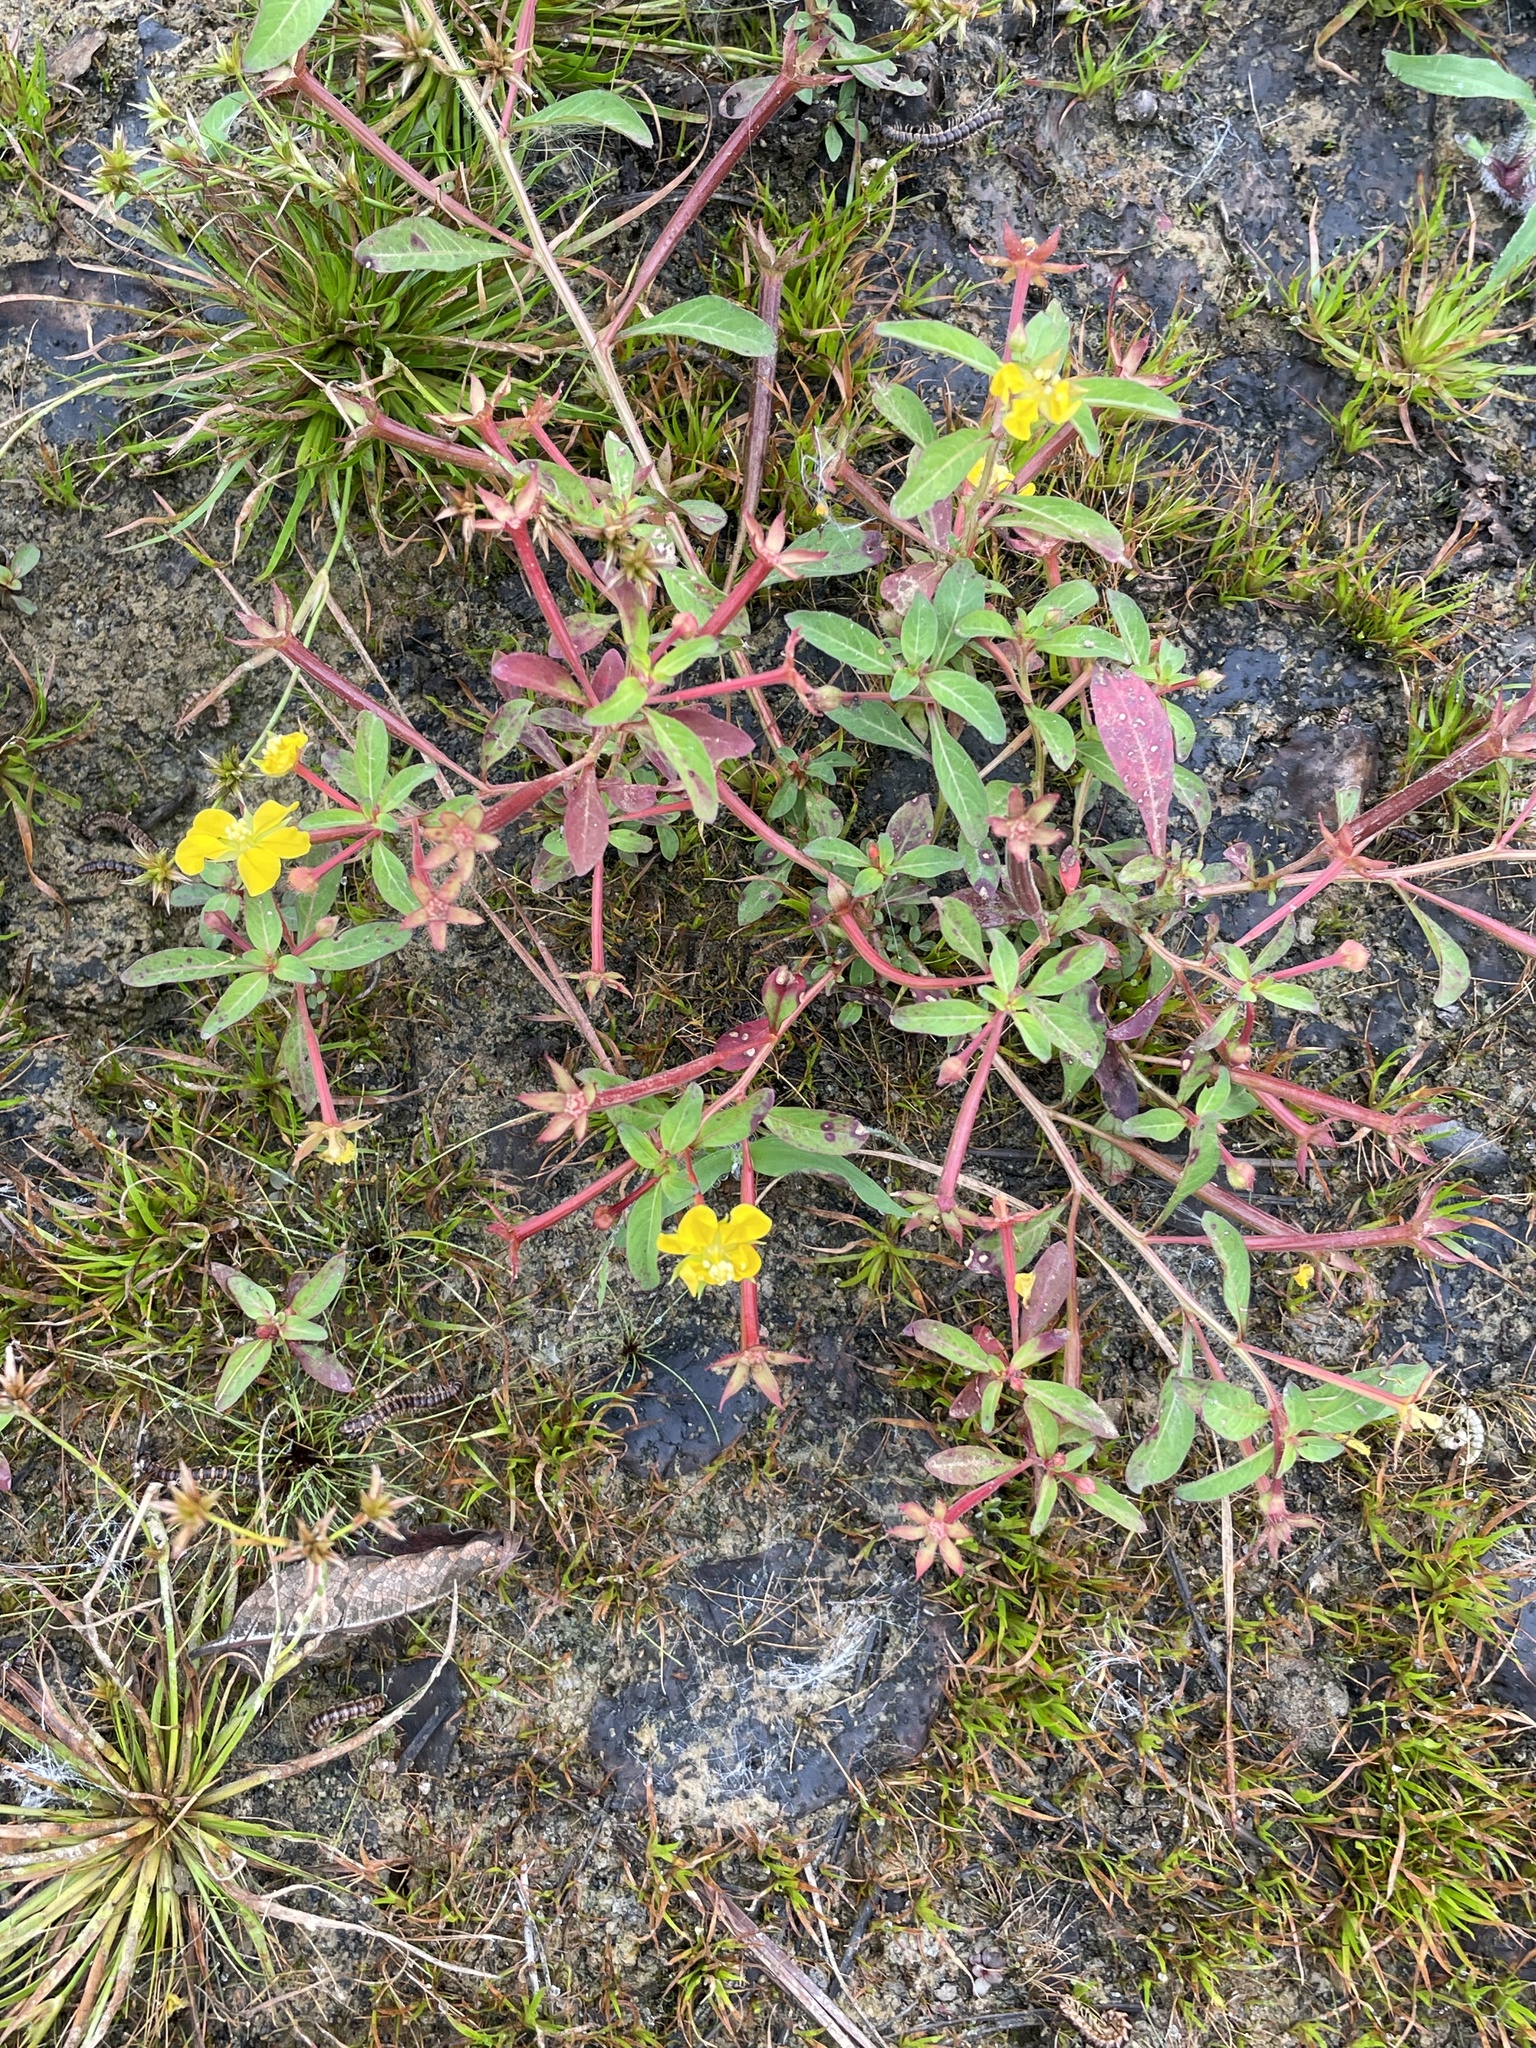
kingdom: Plantae
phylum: Tracheophyta
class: Magnoliopsida
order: Myrtales
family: Onagraceae
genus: Ludwigia
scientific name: Ludwigia leptocarpa
